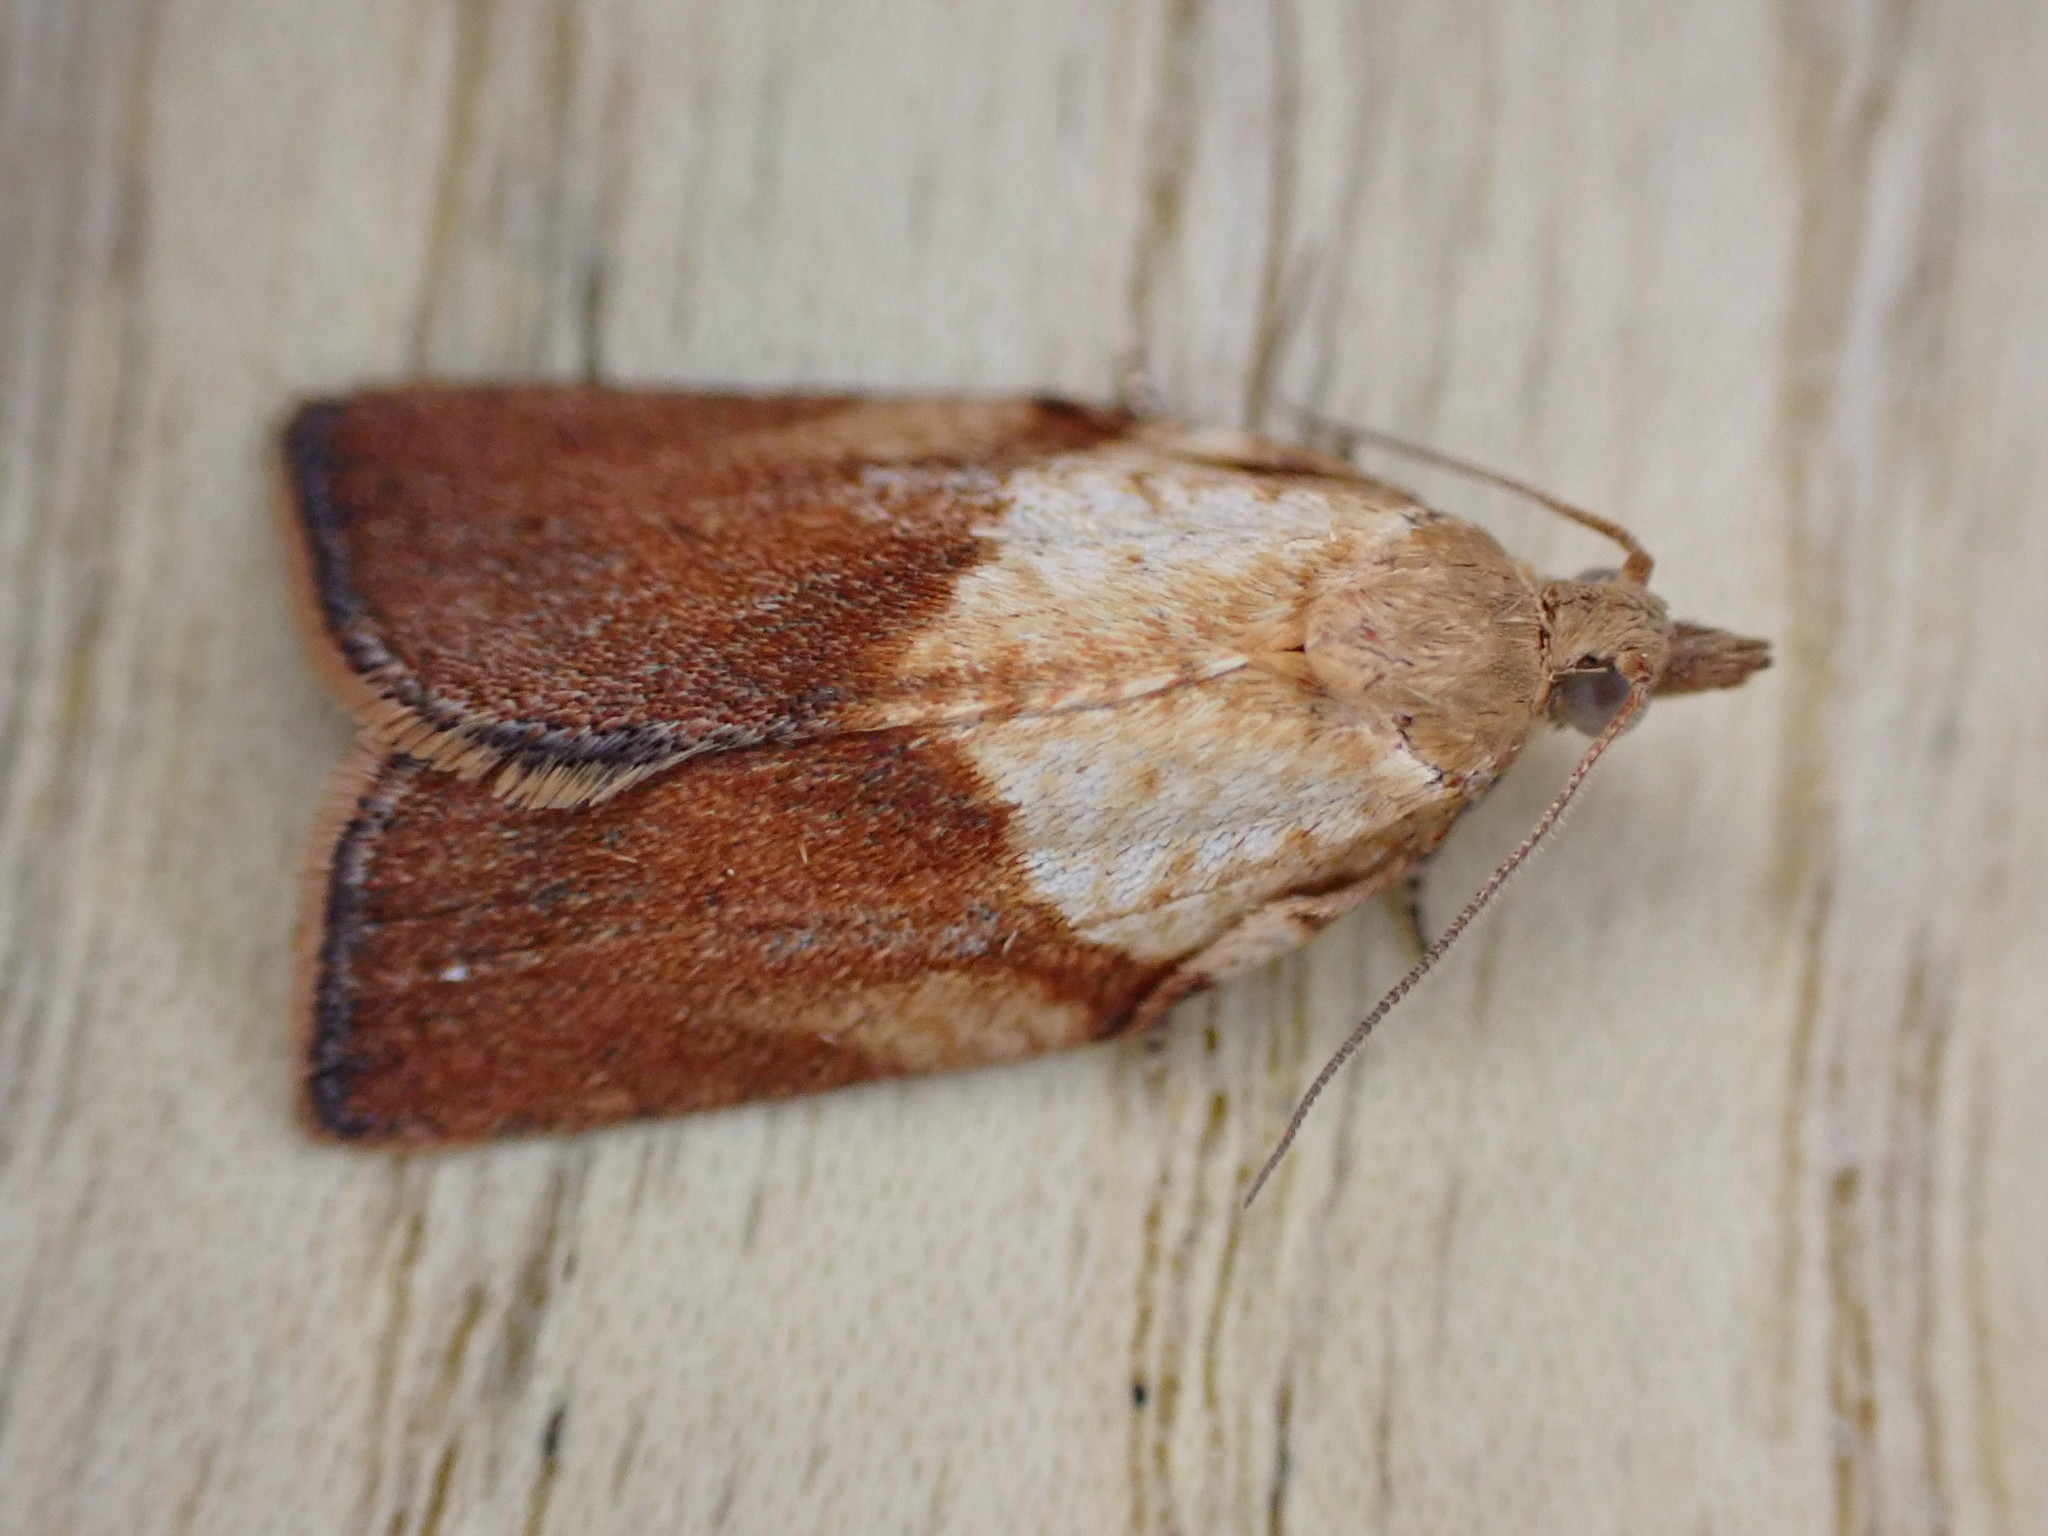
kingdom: Animalia
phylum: Arthropoda
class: Insecta
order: Lepidoptera
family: Tortricidae
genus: Epiphyas
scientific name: Epiphyas postvittana
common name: Light brown apple moth
